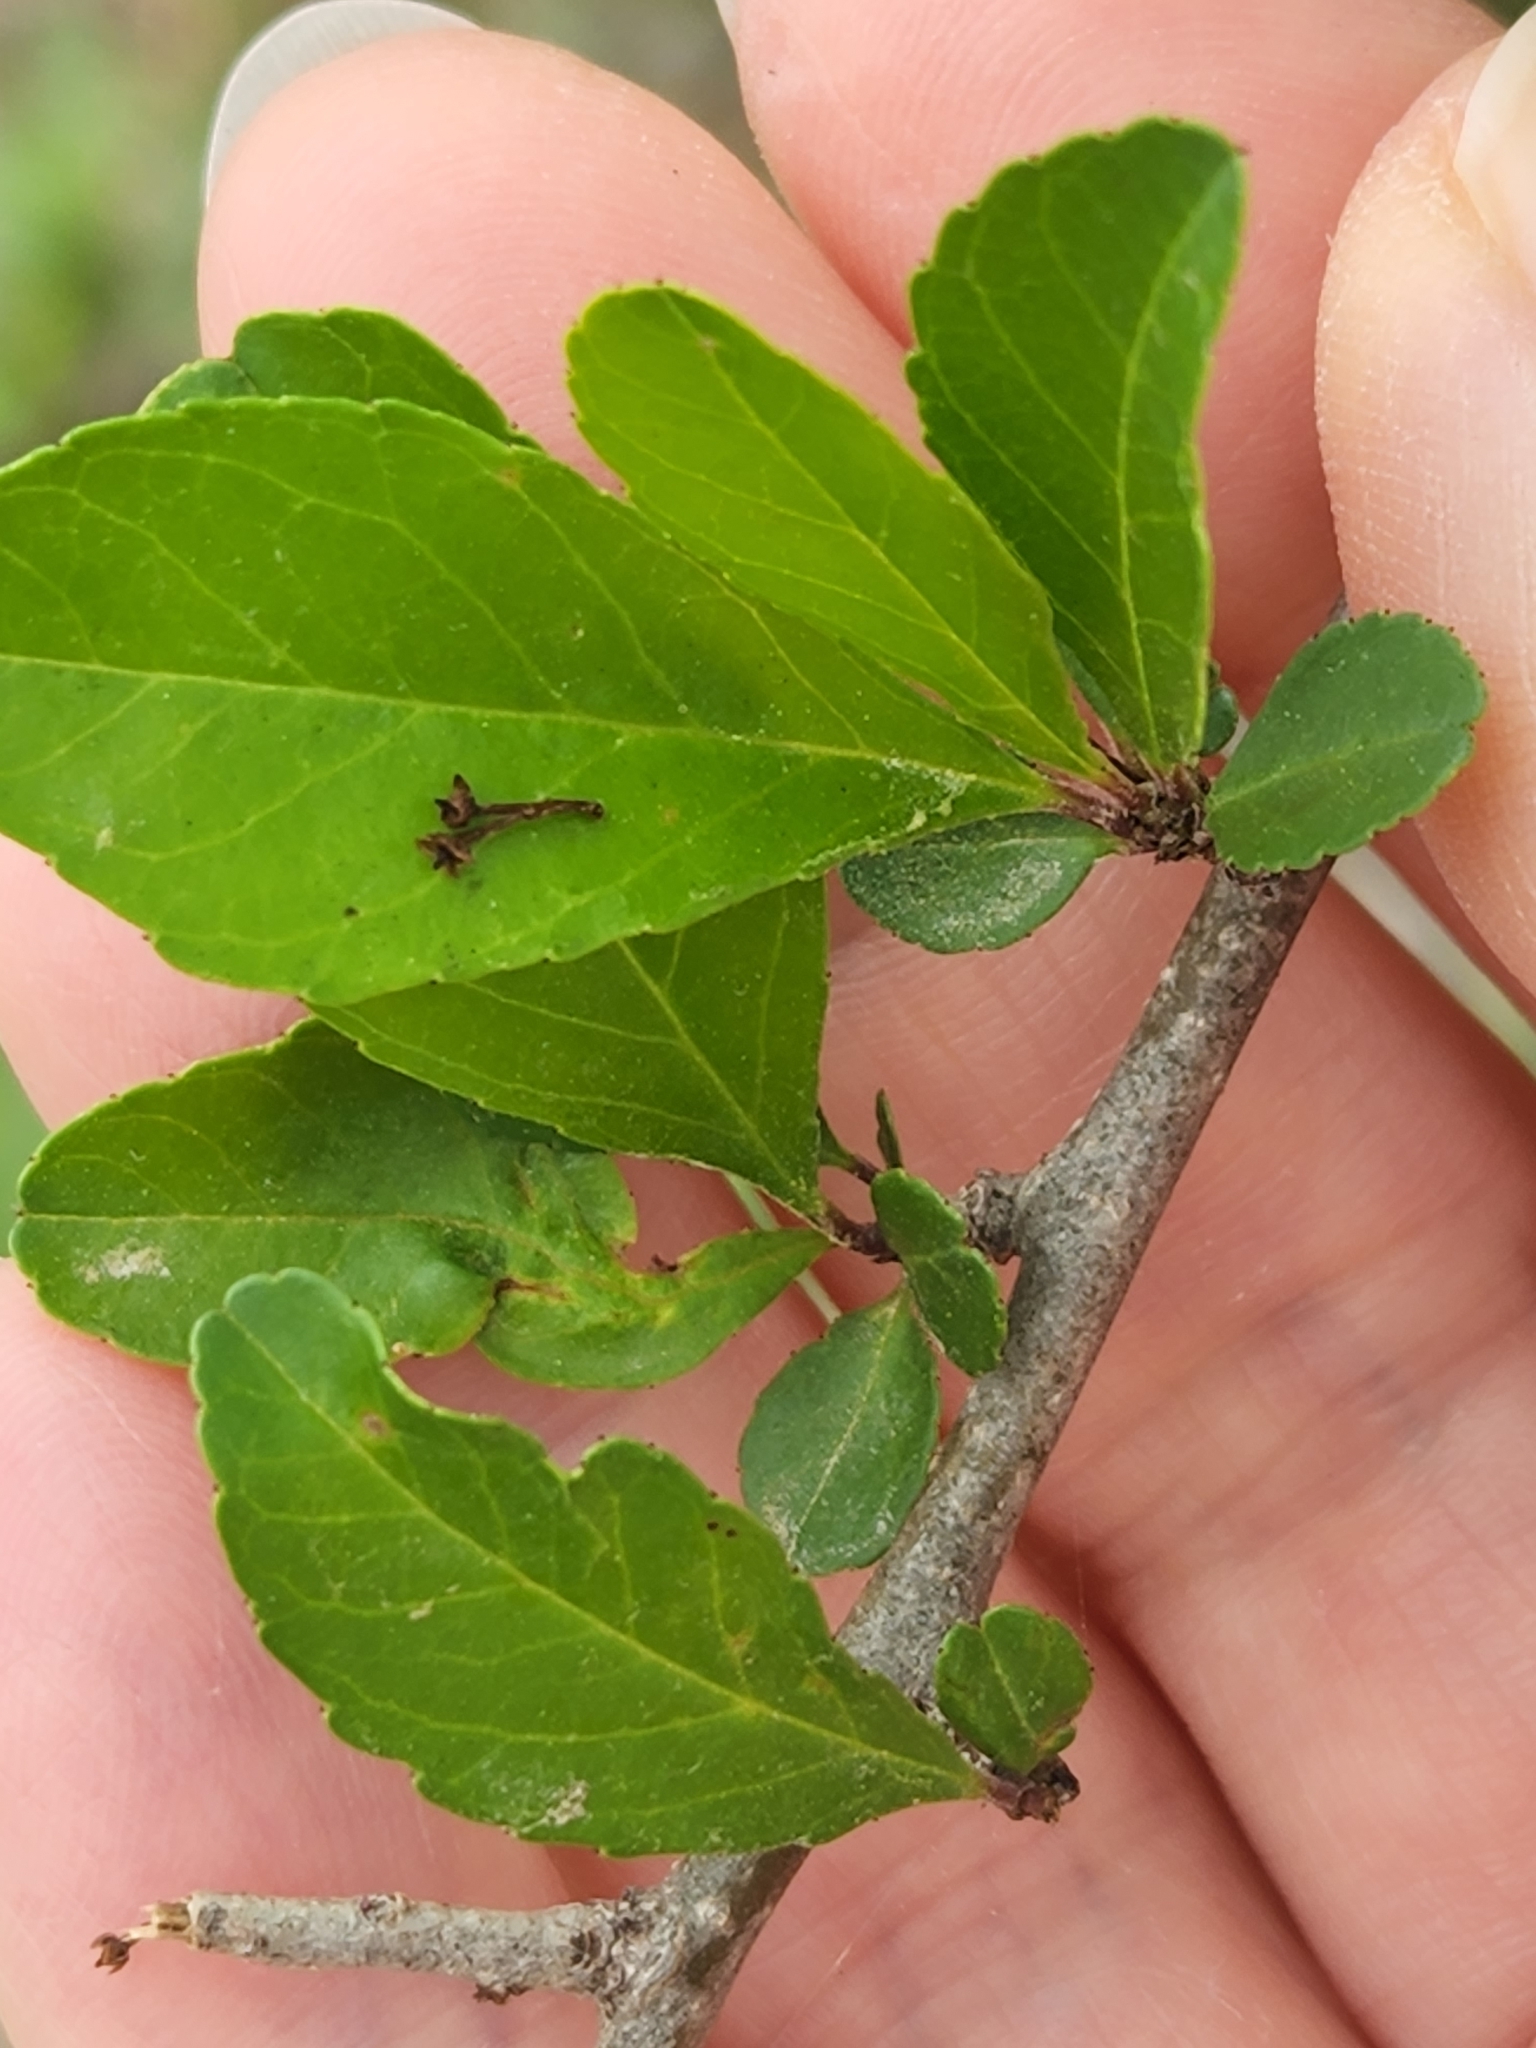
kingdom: Plantae
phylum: Tracheophyta
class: Magnoliopsida
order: Aquifoliales
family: Aquifoliaceae
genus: Ilex
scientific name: Ilex decidua
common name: Possum-haw
